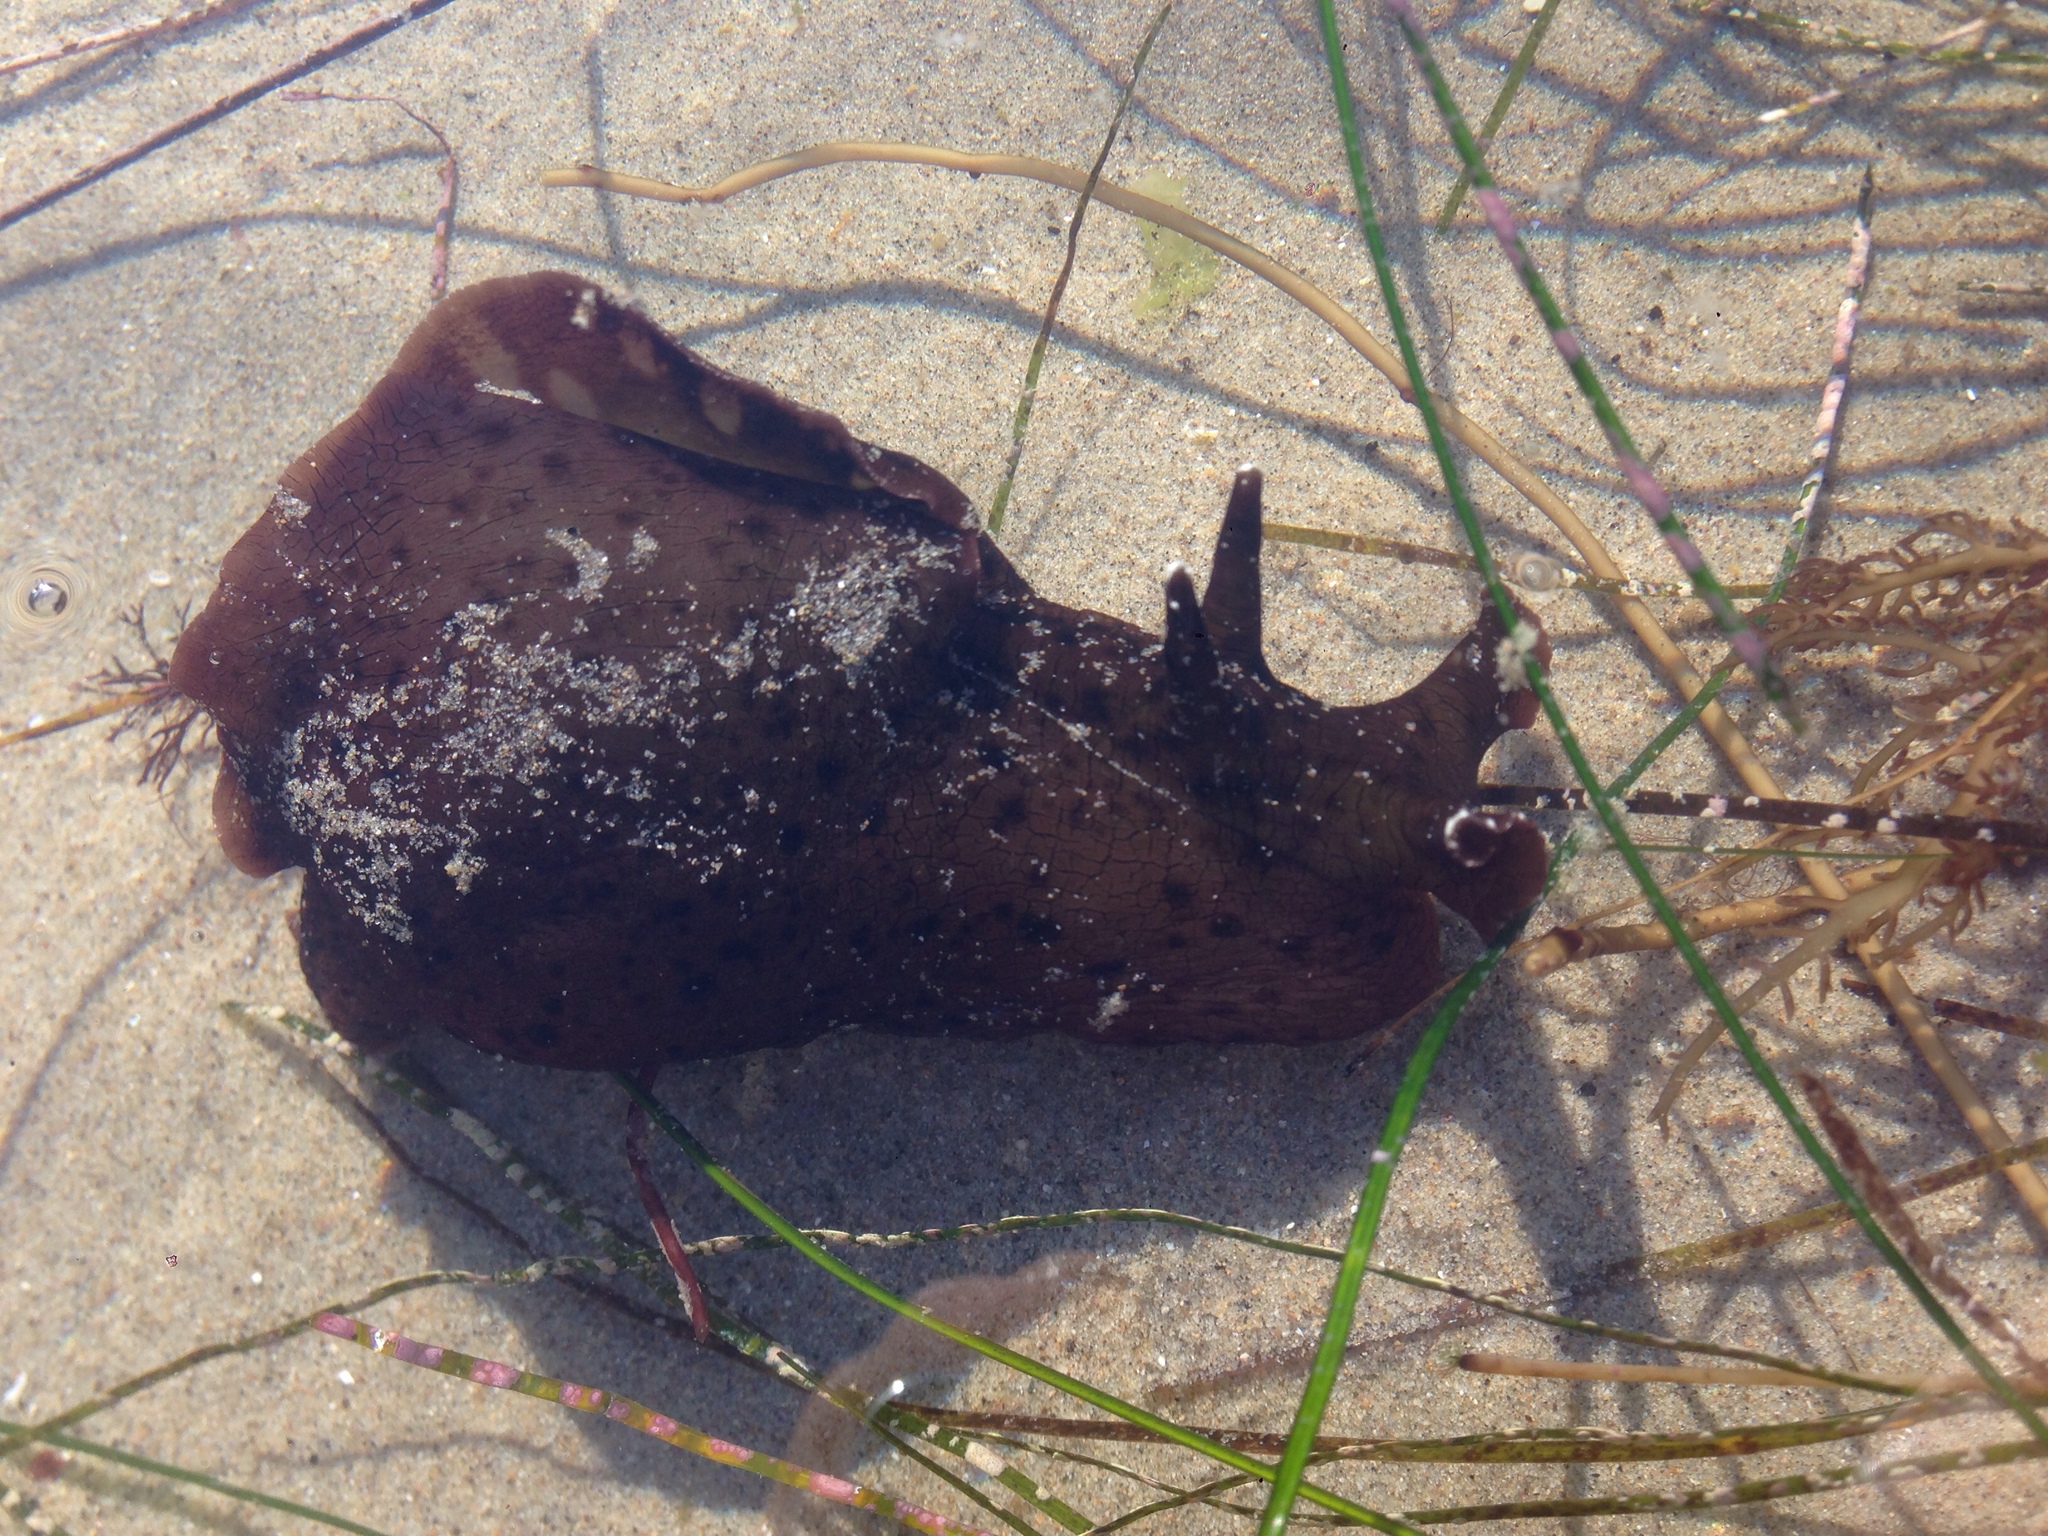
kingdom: Animalia
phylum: Mollusca
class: Gastropoda
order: Aplysiida
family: Aplysiidae
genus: Aplysia
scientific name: Aplysia californica
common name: California seahare
